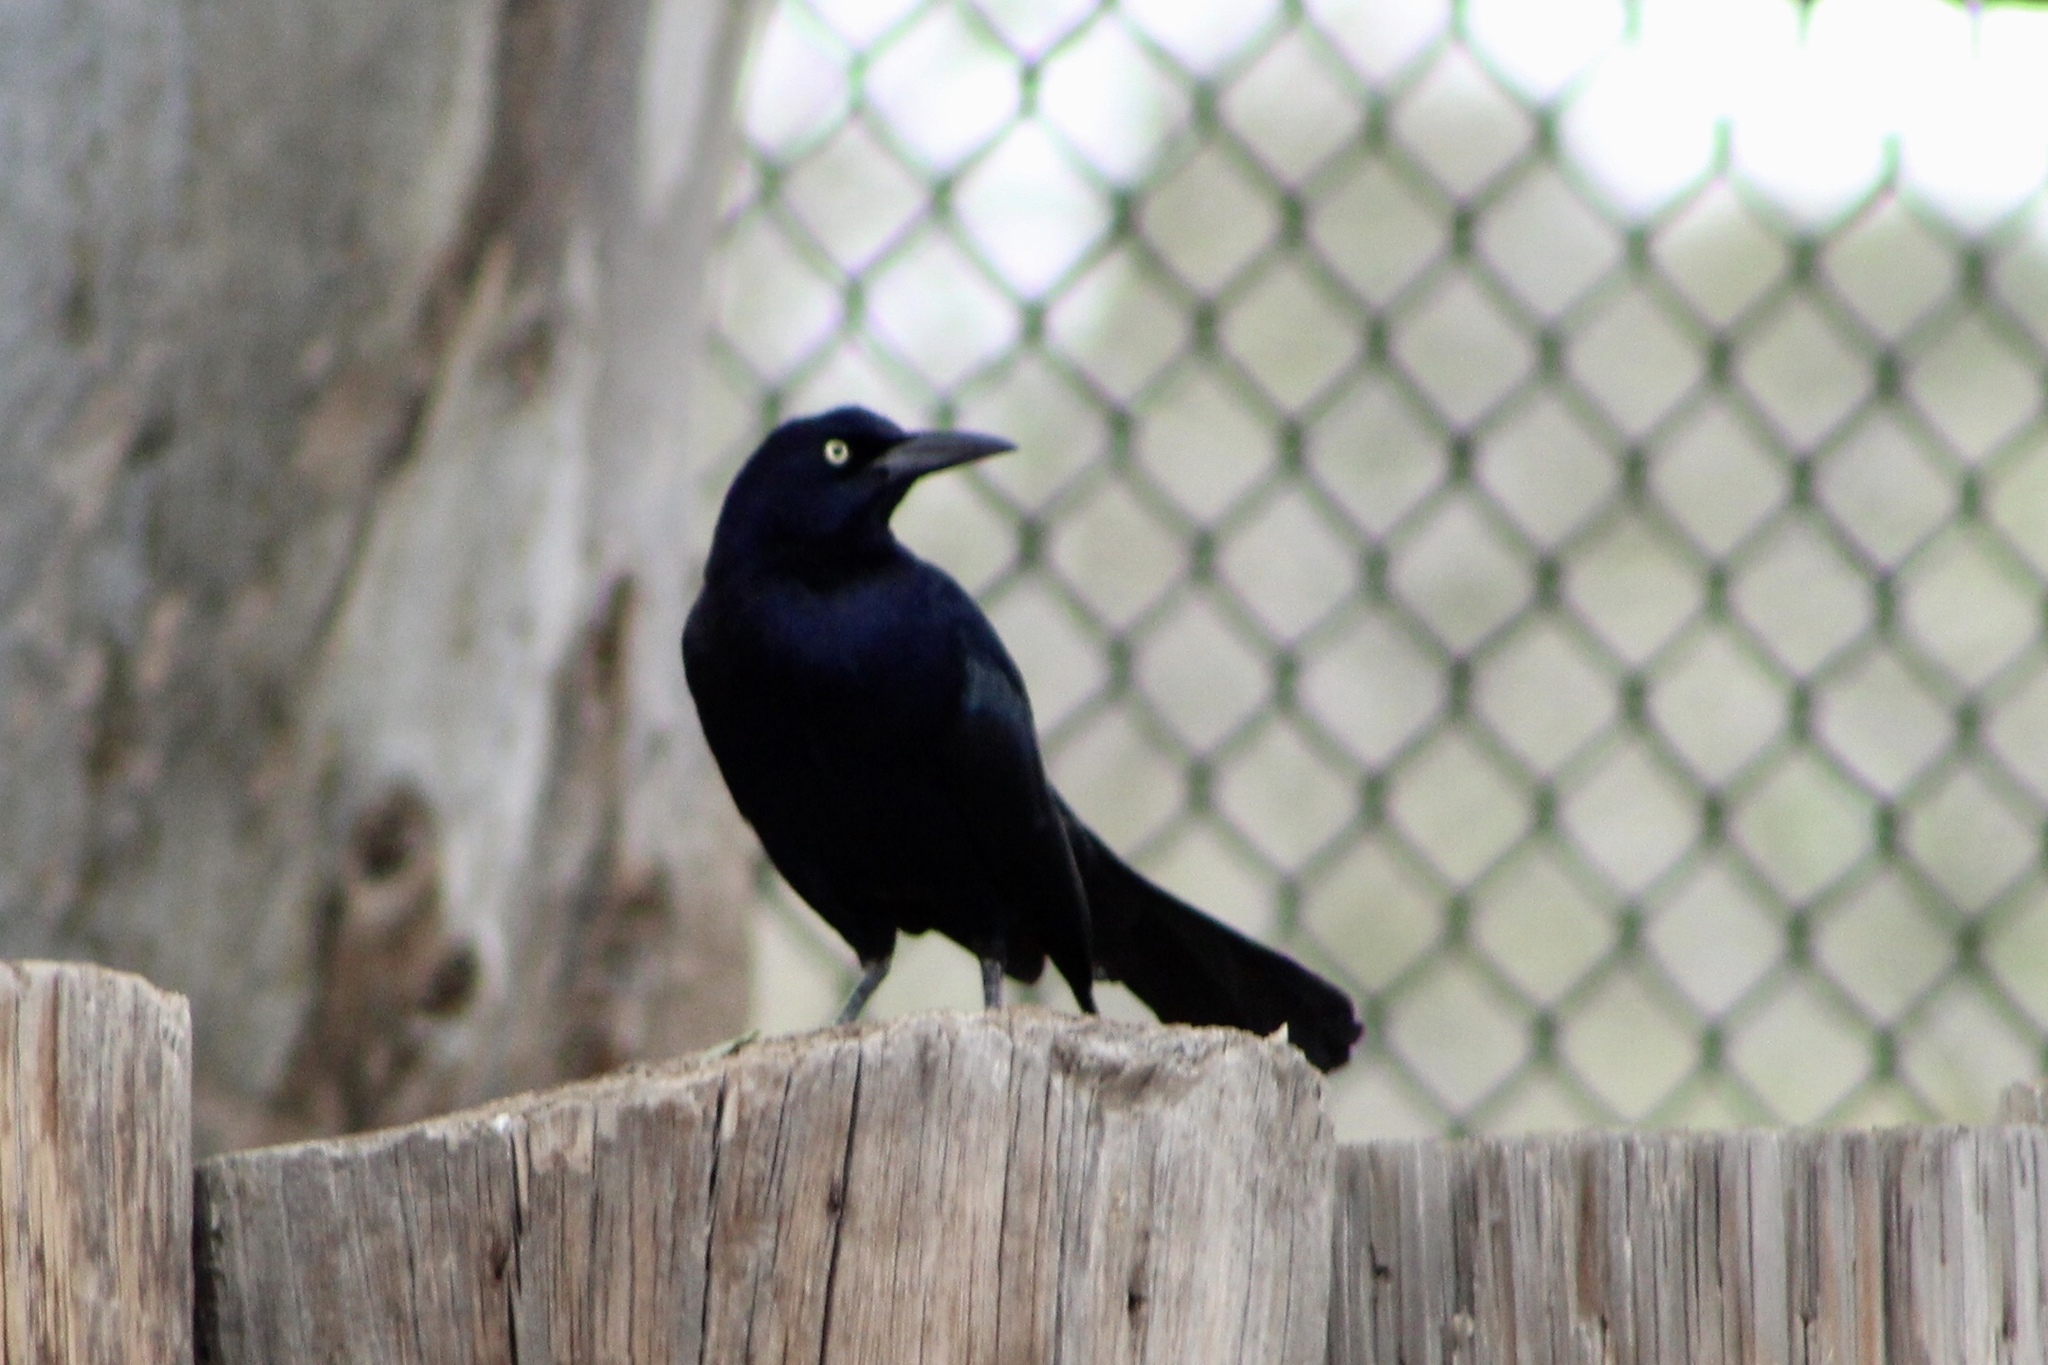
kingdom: Animalia
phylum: Chordata
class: Aves
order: Passeriformes
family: Icteridae
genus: Quiscalus
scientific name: Quiscalus mexicanus
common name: Great-tailed grackle
